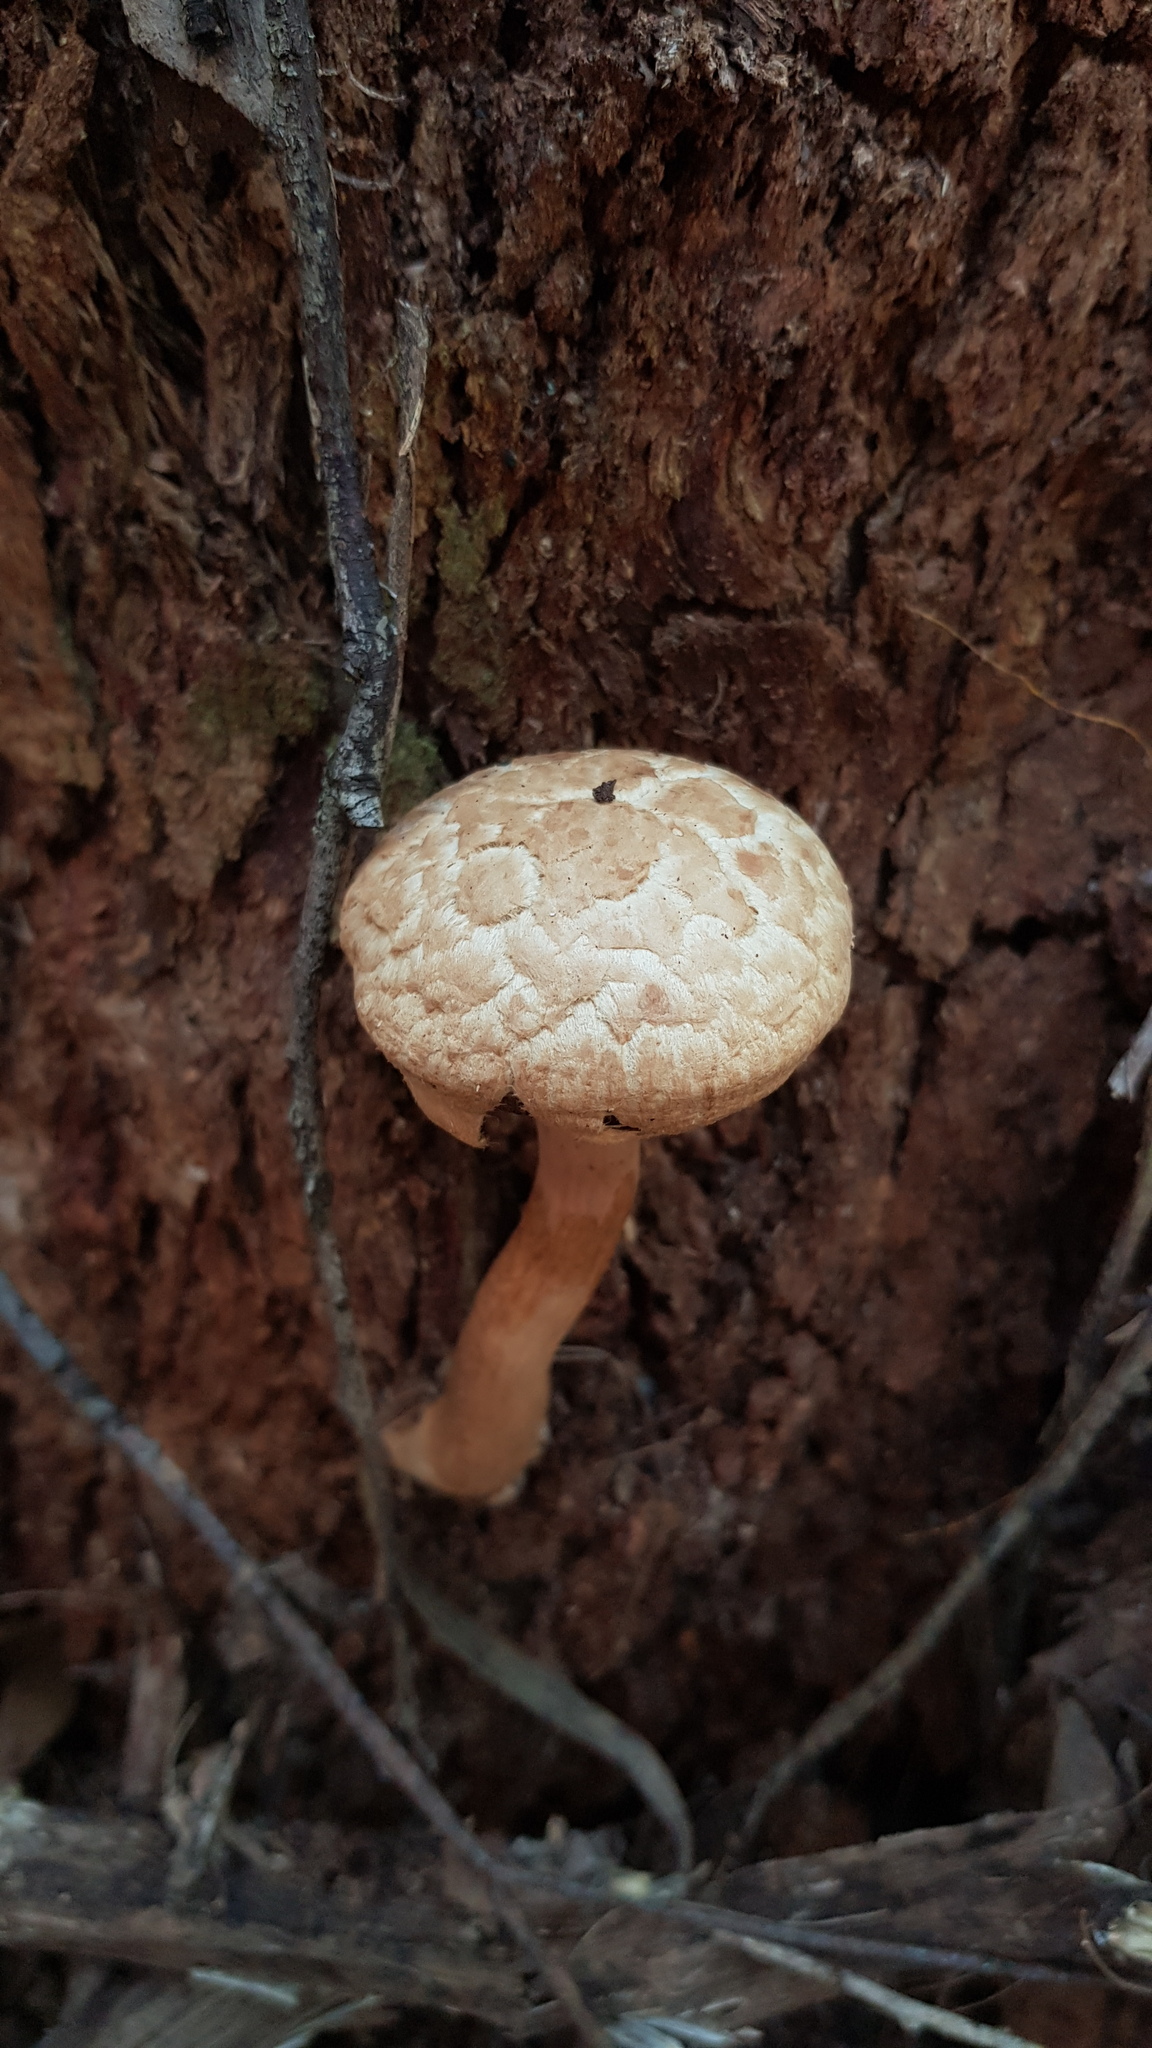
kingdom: Fungi
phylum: Basidiomycota
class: Agaricomycetes
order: Boletales
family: Boletaceae
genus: Boletellus
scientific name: Boletellus dissiliens
